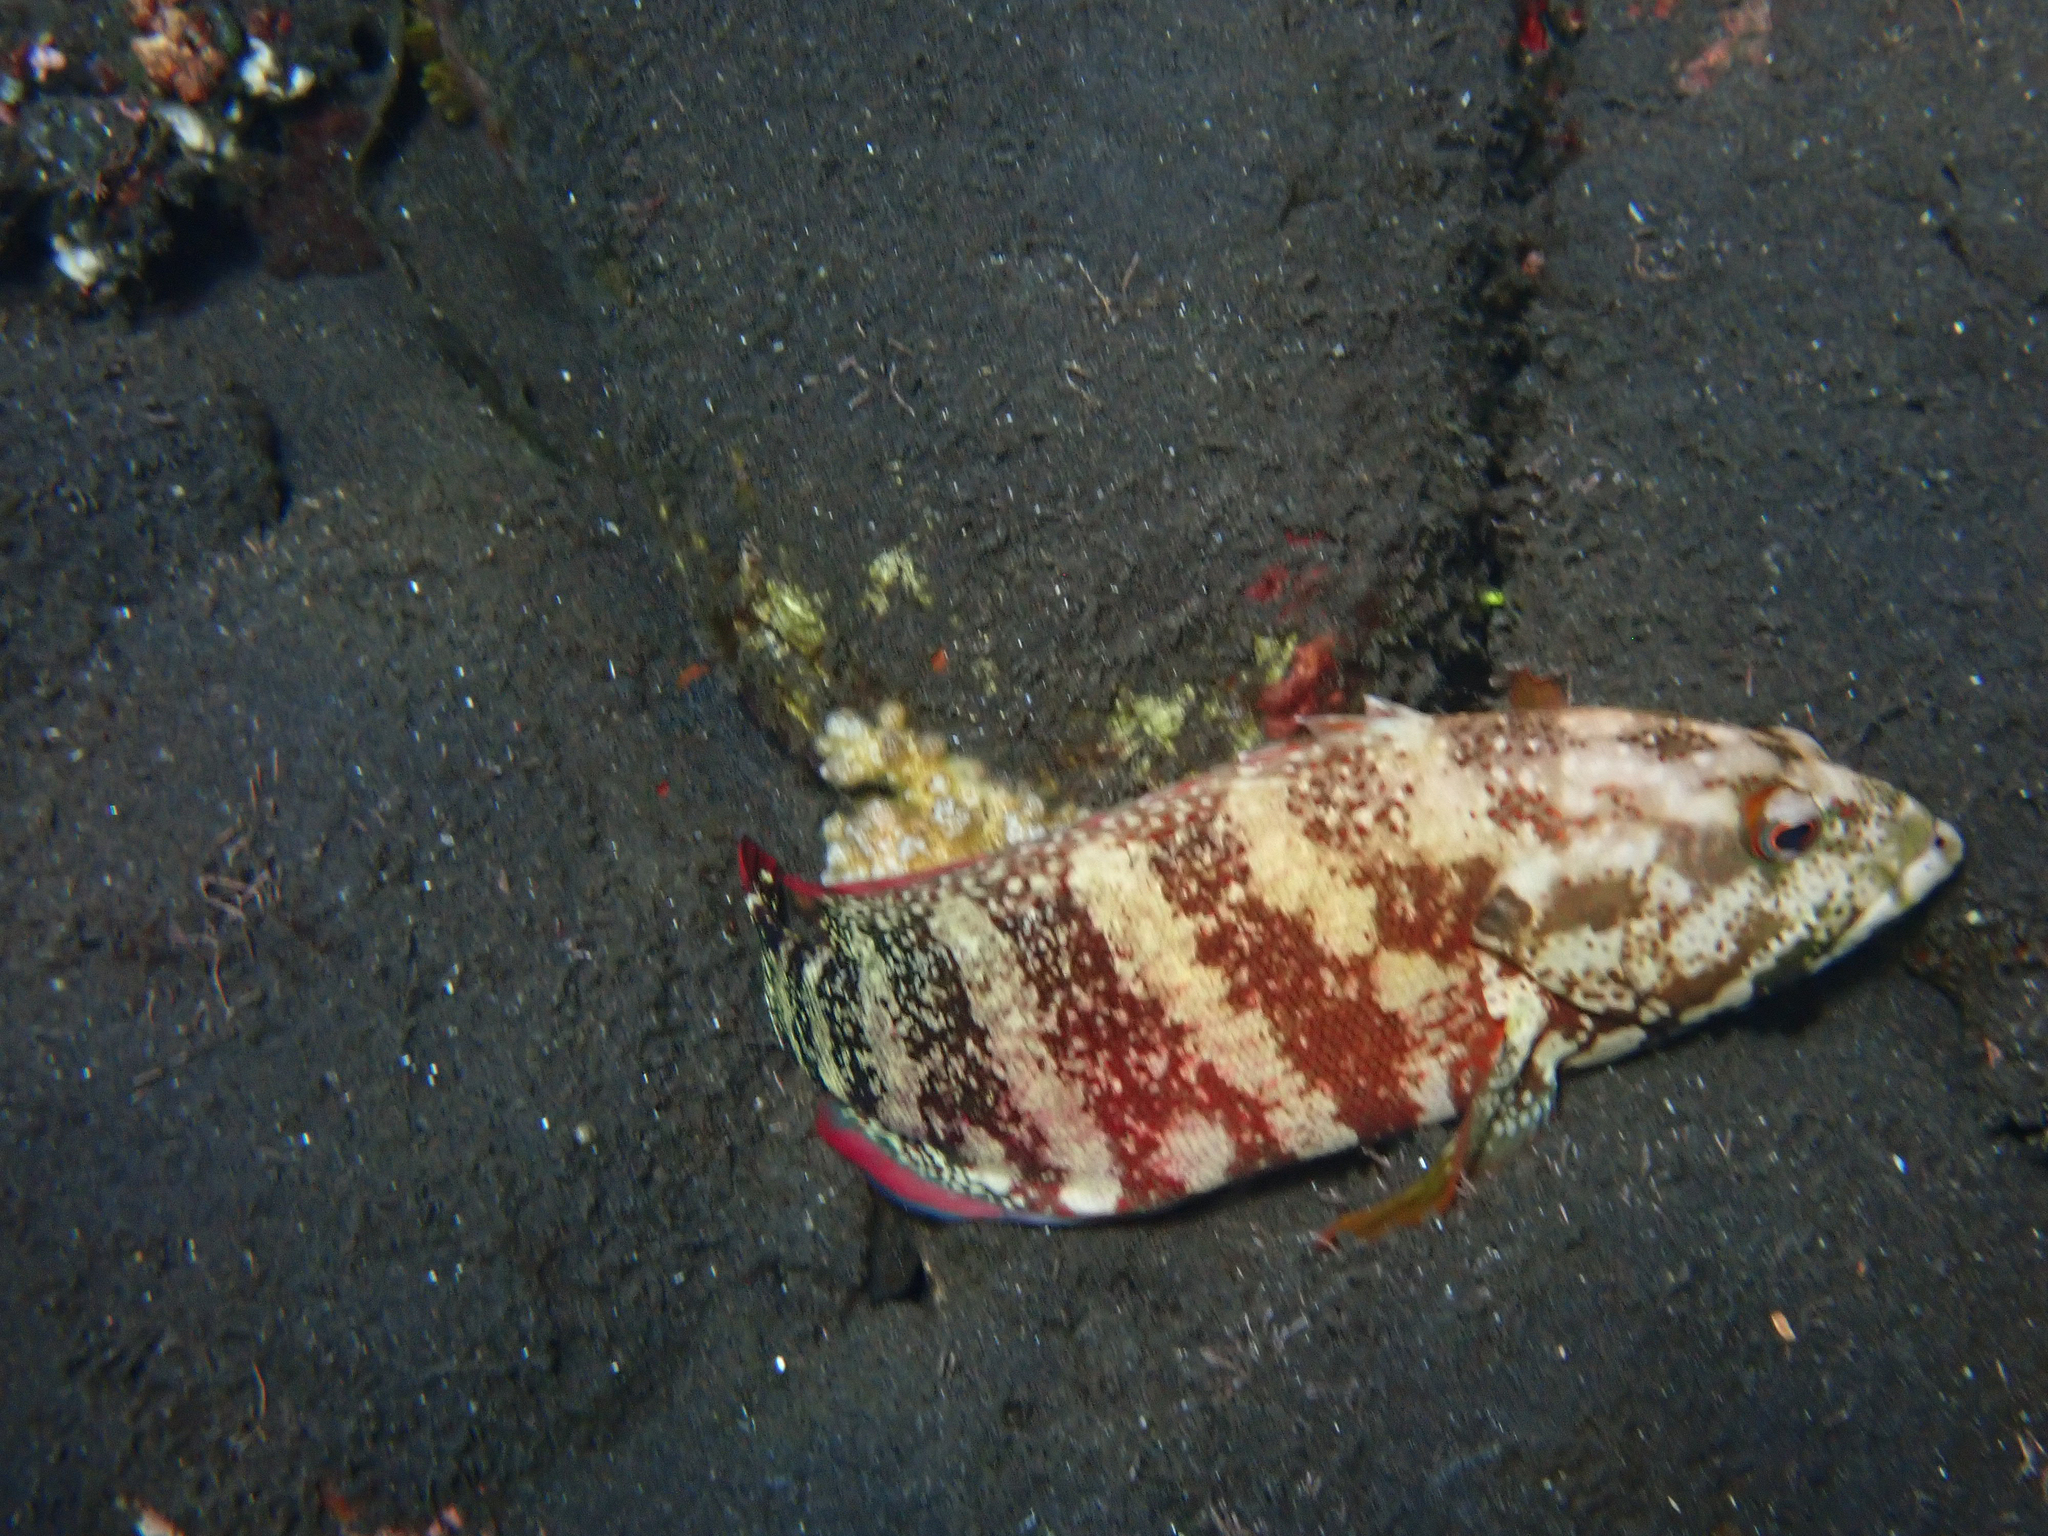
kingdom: Animalia
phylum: Chordata
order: Perciformes
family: Serranidae
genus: Cephalopholis
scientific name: Cephalopholis urodeta
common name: Darkfin hind
